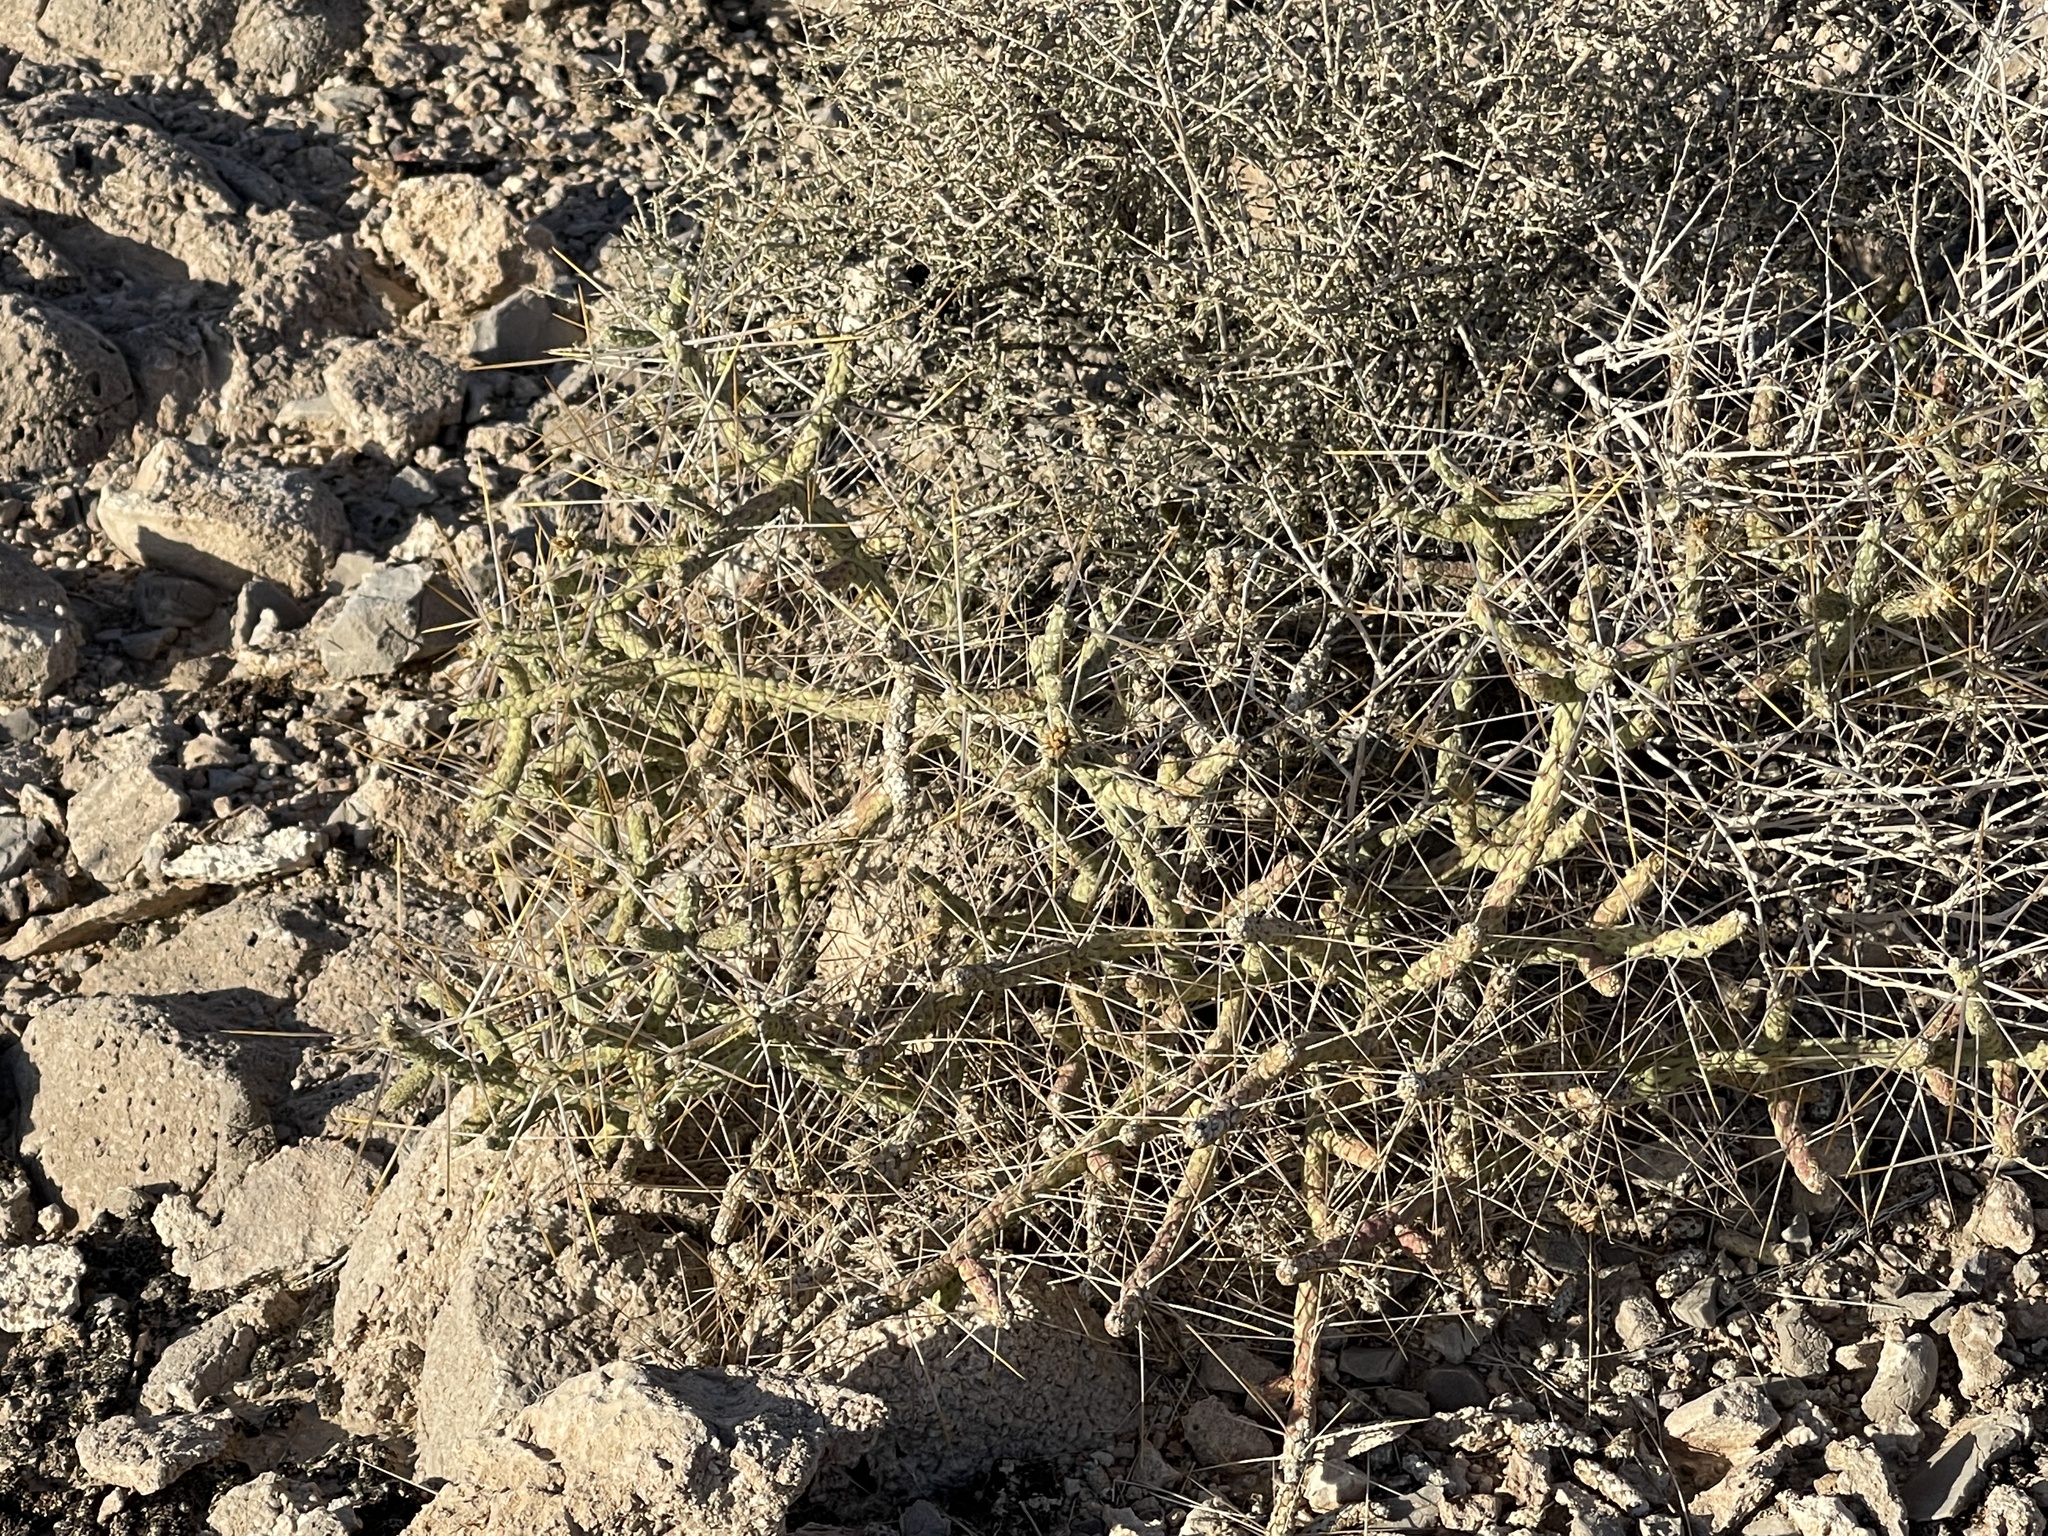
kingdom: Plantae
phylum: Tracheophyta
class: Magnoliopsida
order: Caryophyllales
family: Cactaceae
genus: Cylindropuntia
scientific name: Cylindropuntia ramosissima
